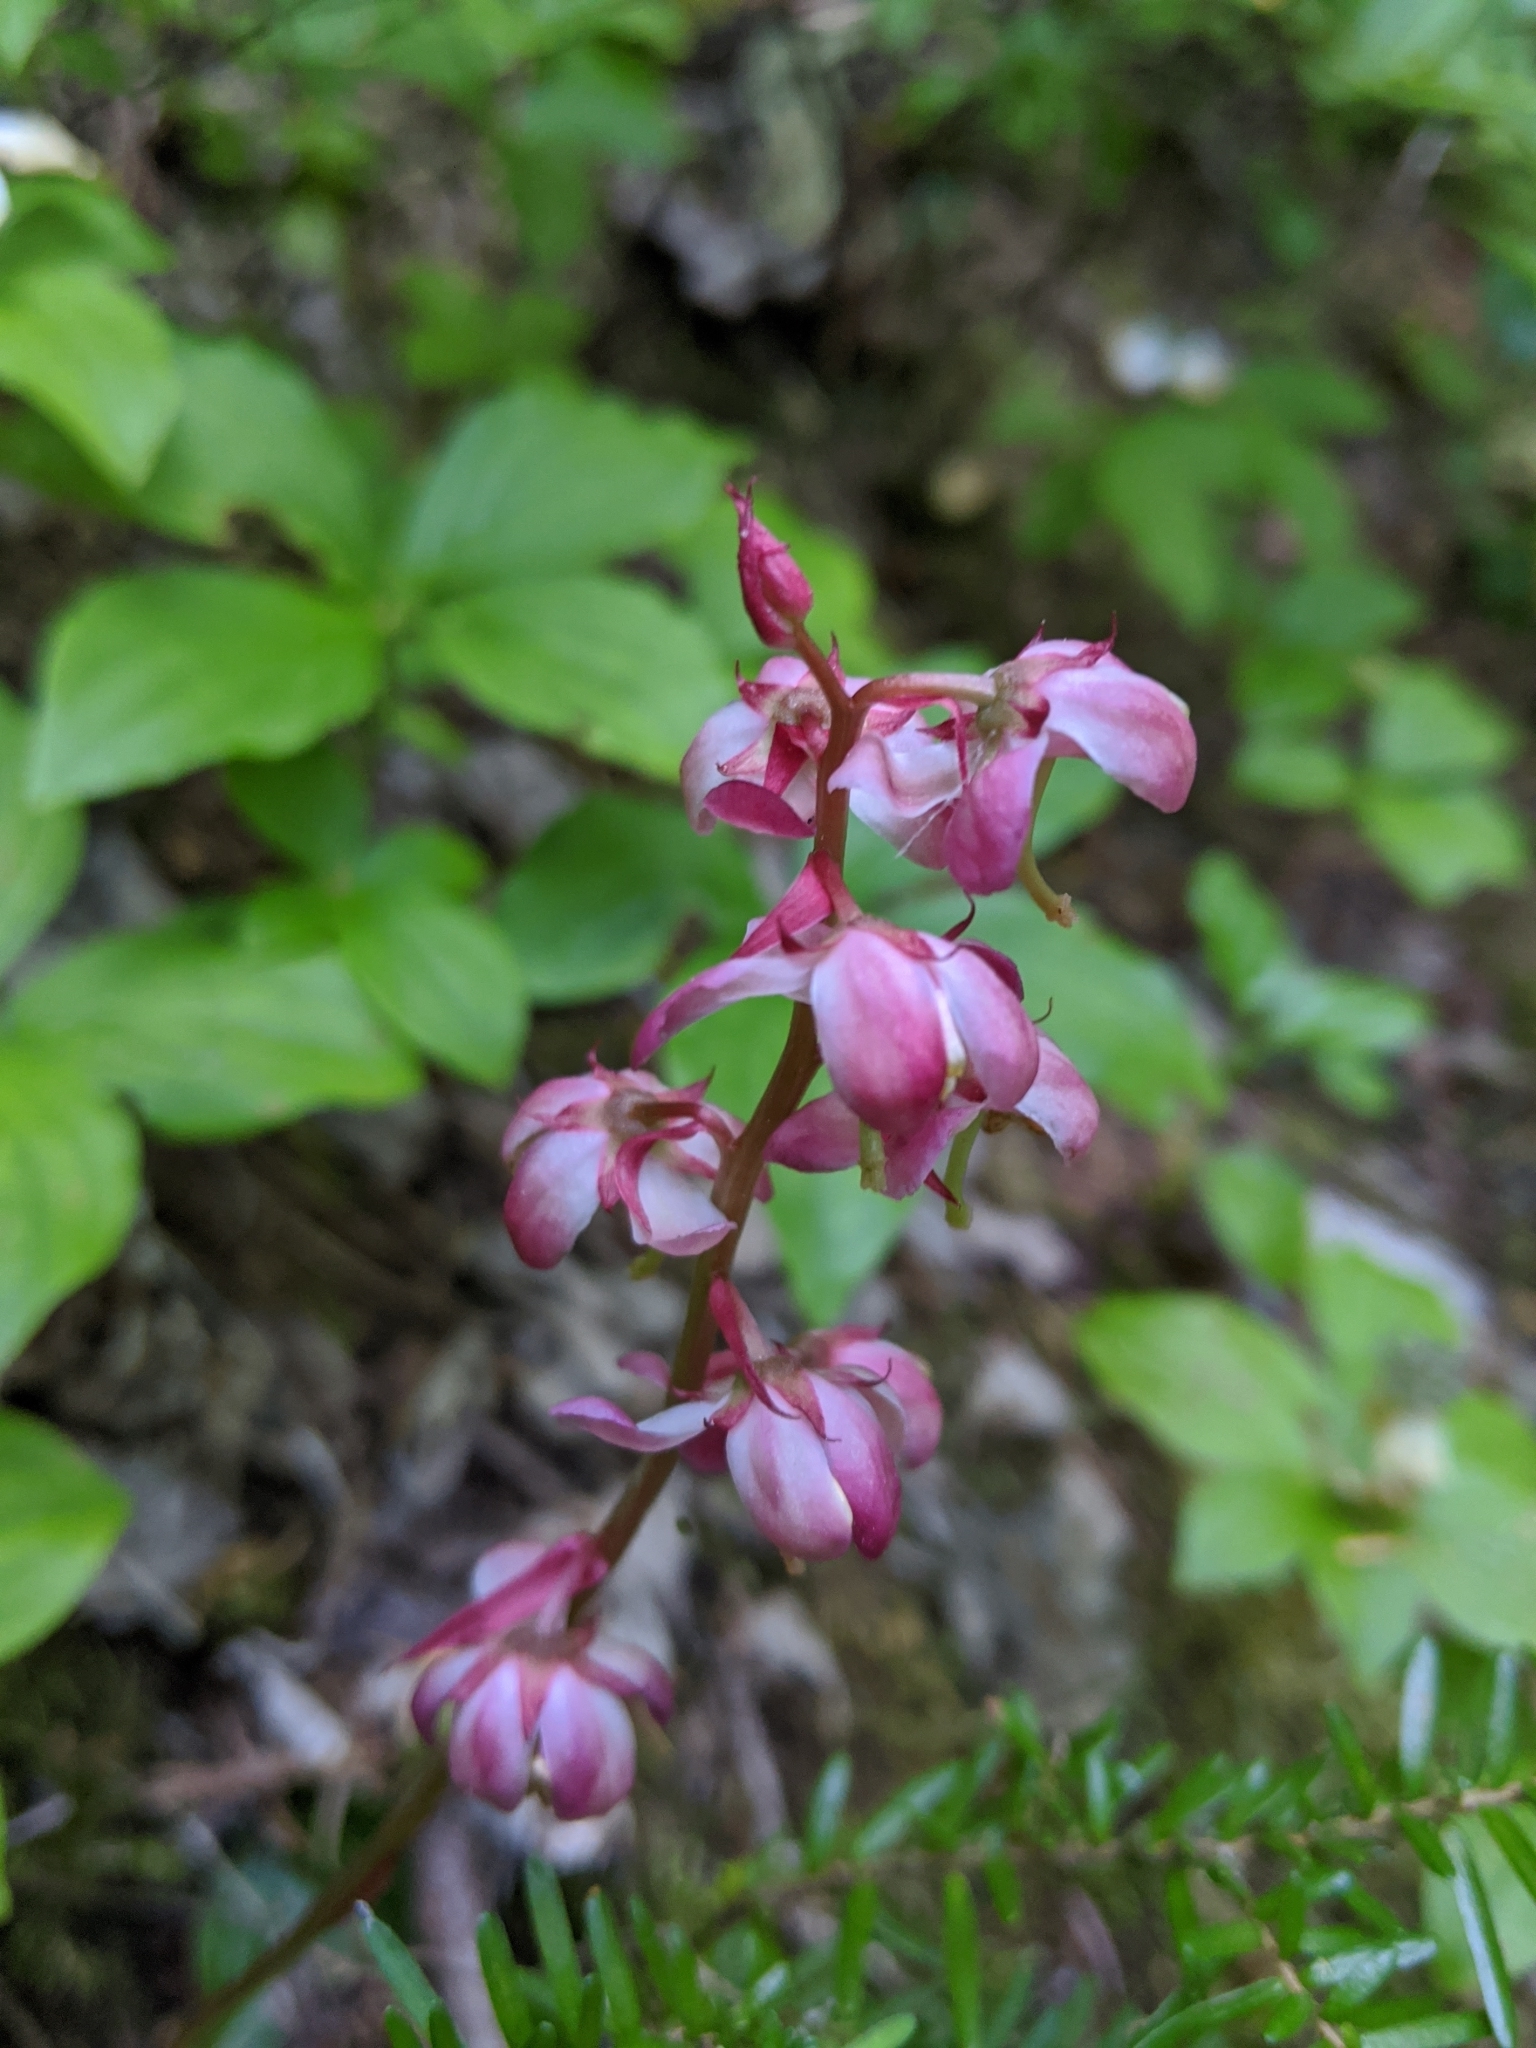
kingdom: Plantae
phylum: Tracheophyta
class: Magnoliopsida
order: Ericales
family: Ericaceae
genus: Pyrola
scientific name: Pyrola asarifolia
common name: Bog wintergreen
